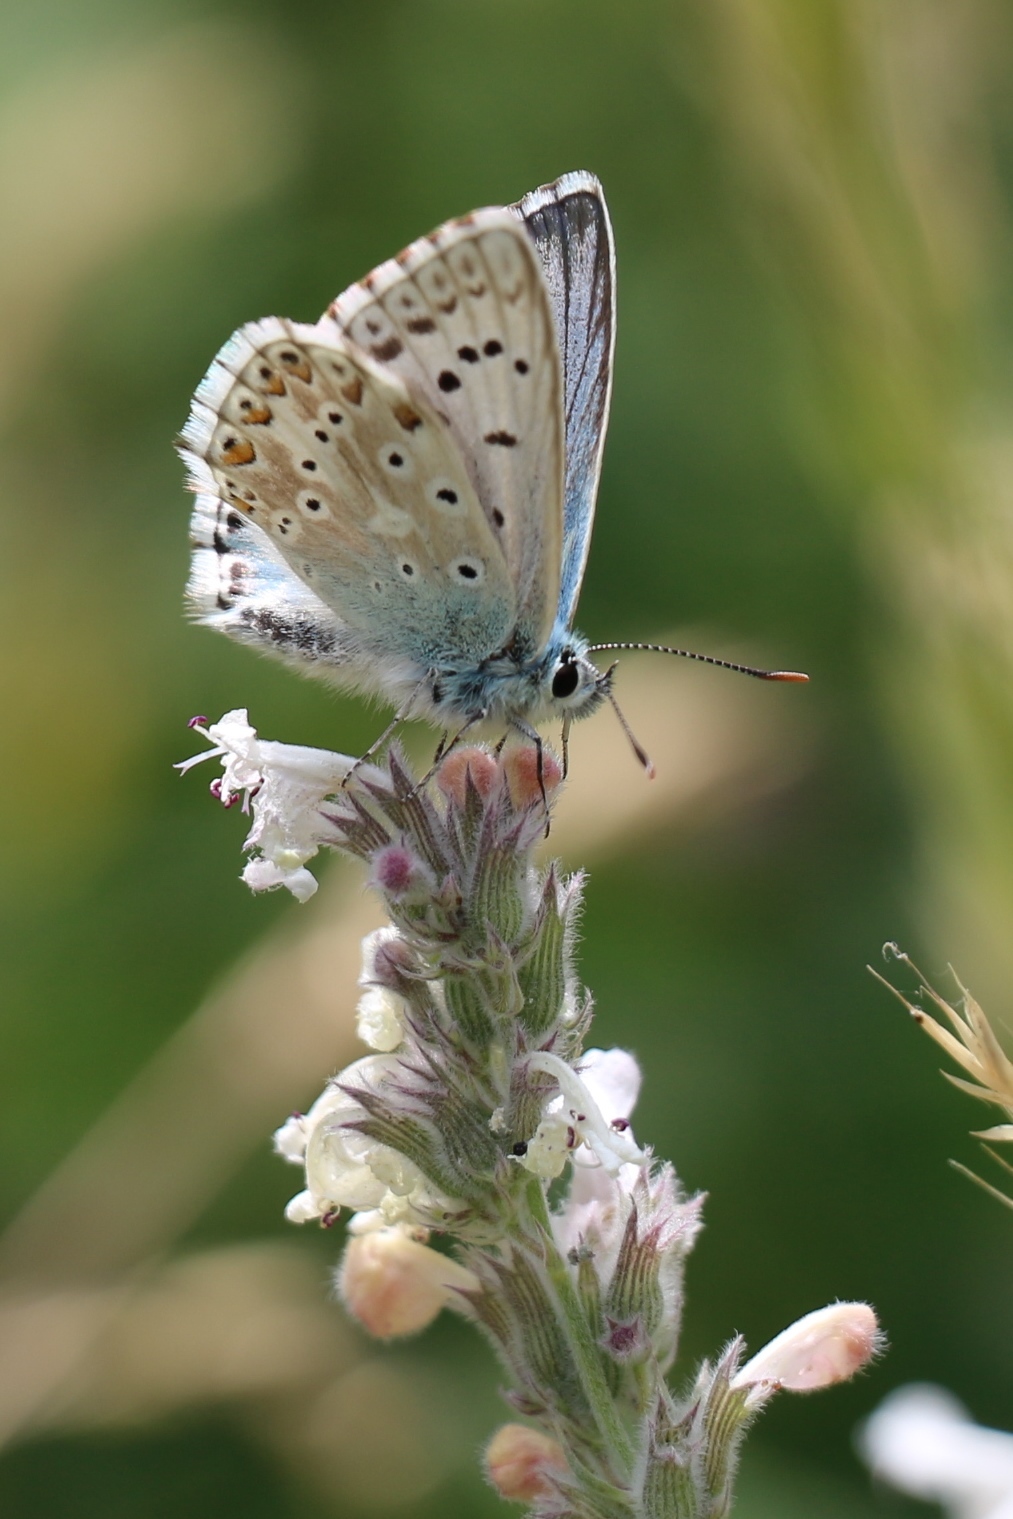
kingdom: Animalia
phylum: Arthropoda
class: Insecta
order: Lepidoptera
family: Lycaenidae
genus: Lysandra
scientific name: Lysandra coridon
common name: Chalkhill blue
